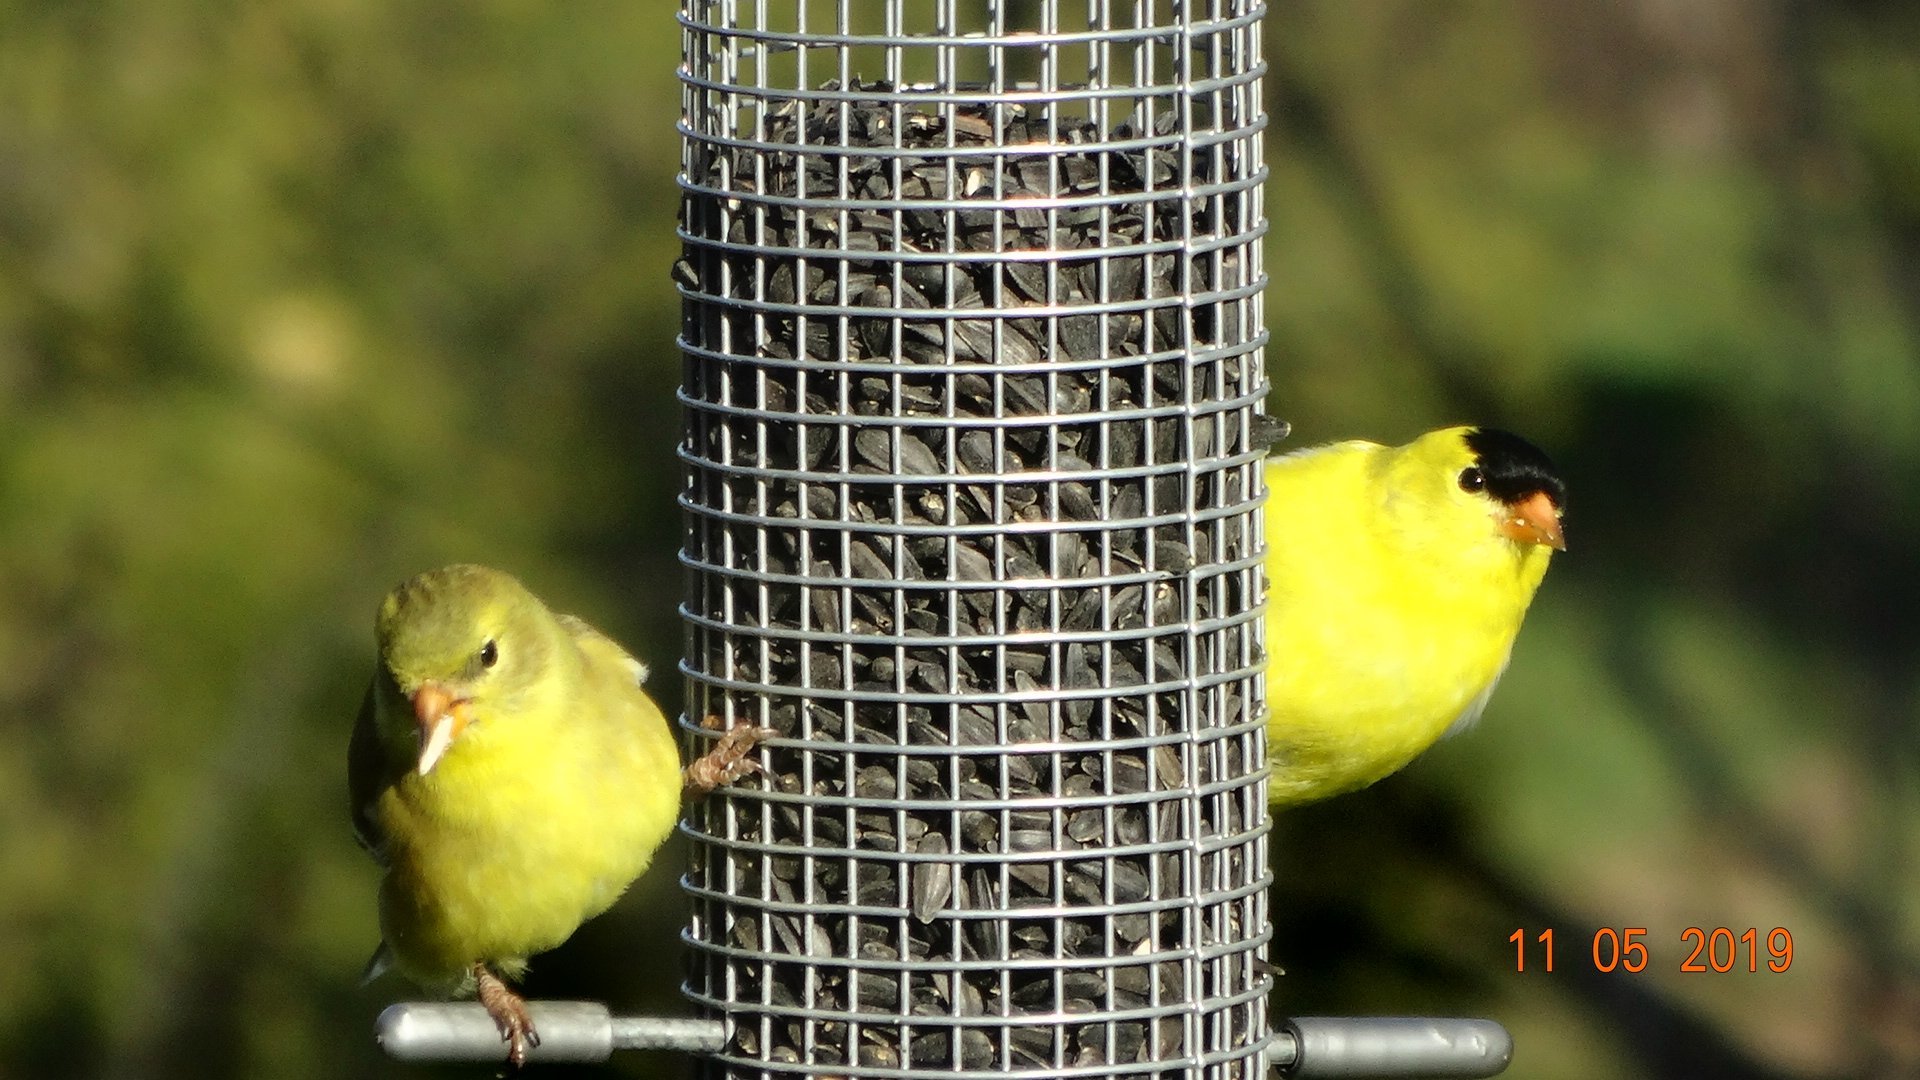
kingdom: Animalia
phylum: Chordata
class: Aves
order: Passeriformes
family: Fringillidae
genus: Spinus
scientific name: Spinus tristis
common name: American goldfinch
